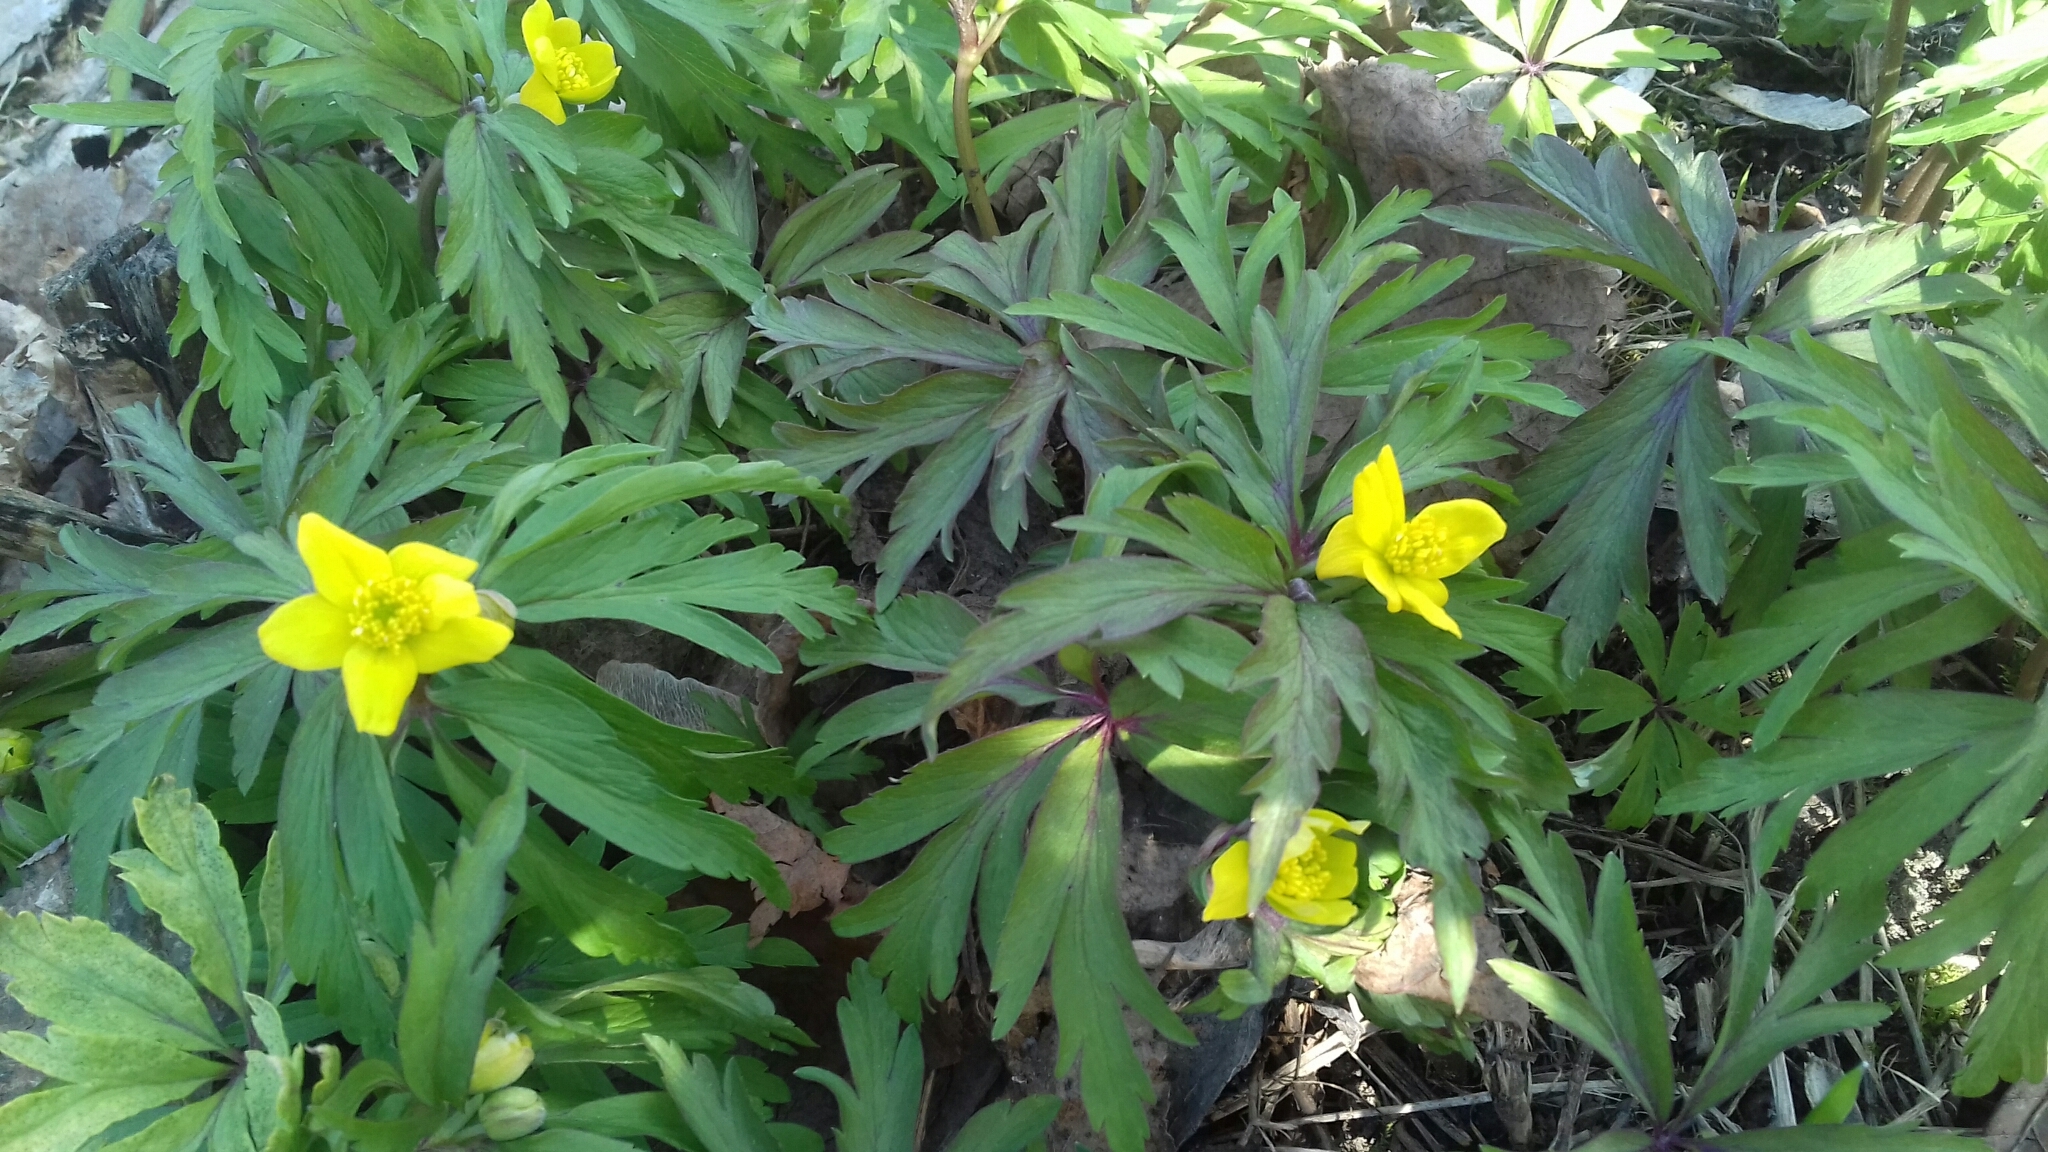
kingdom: Plantae
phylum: Tracheophyta
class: Magnoliopsida
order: Ranunculales
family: Ranunculaceae
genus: Anemone
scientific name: Anemone ranunculoides
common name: Yellow anemone
